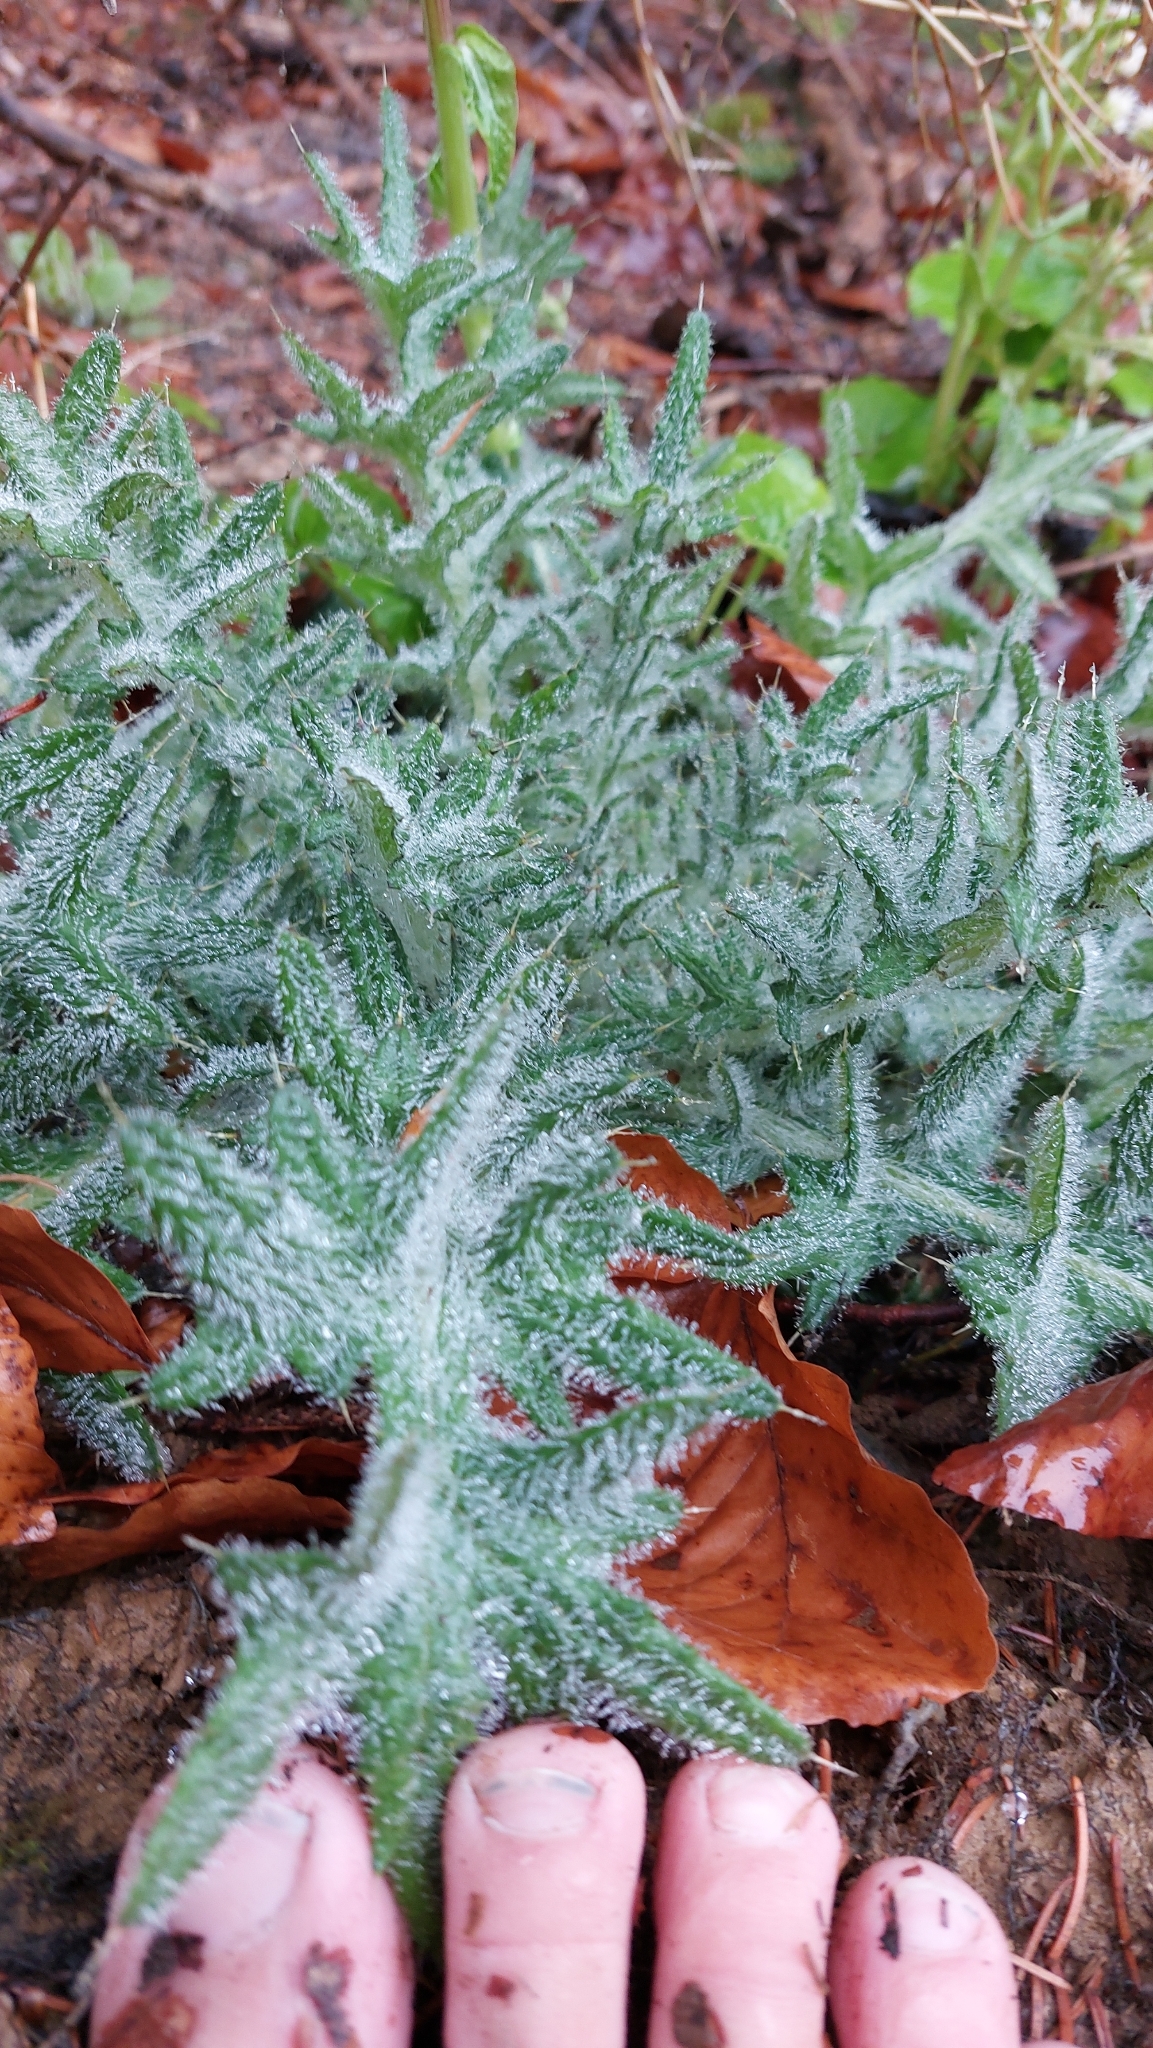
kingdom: Plantae
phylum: Tracheophyta
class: Magnoliopsida
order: Asterales
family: Asteraceae
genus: Cirsium
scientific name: Cirsium vulgare
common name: Bull thistle
